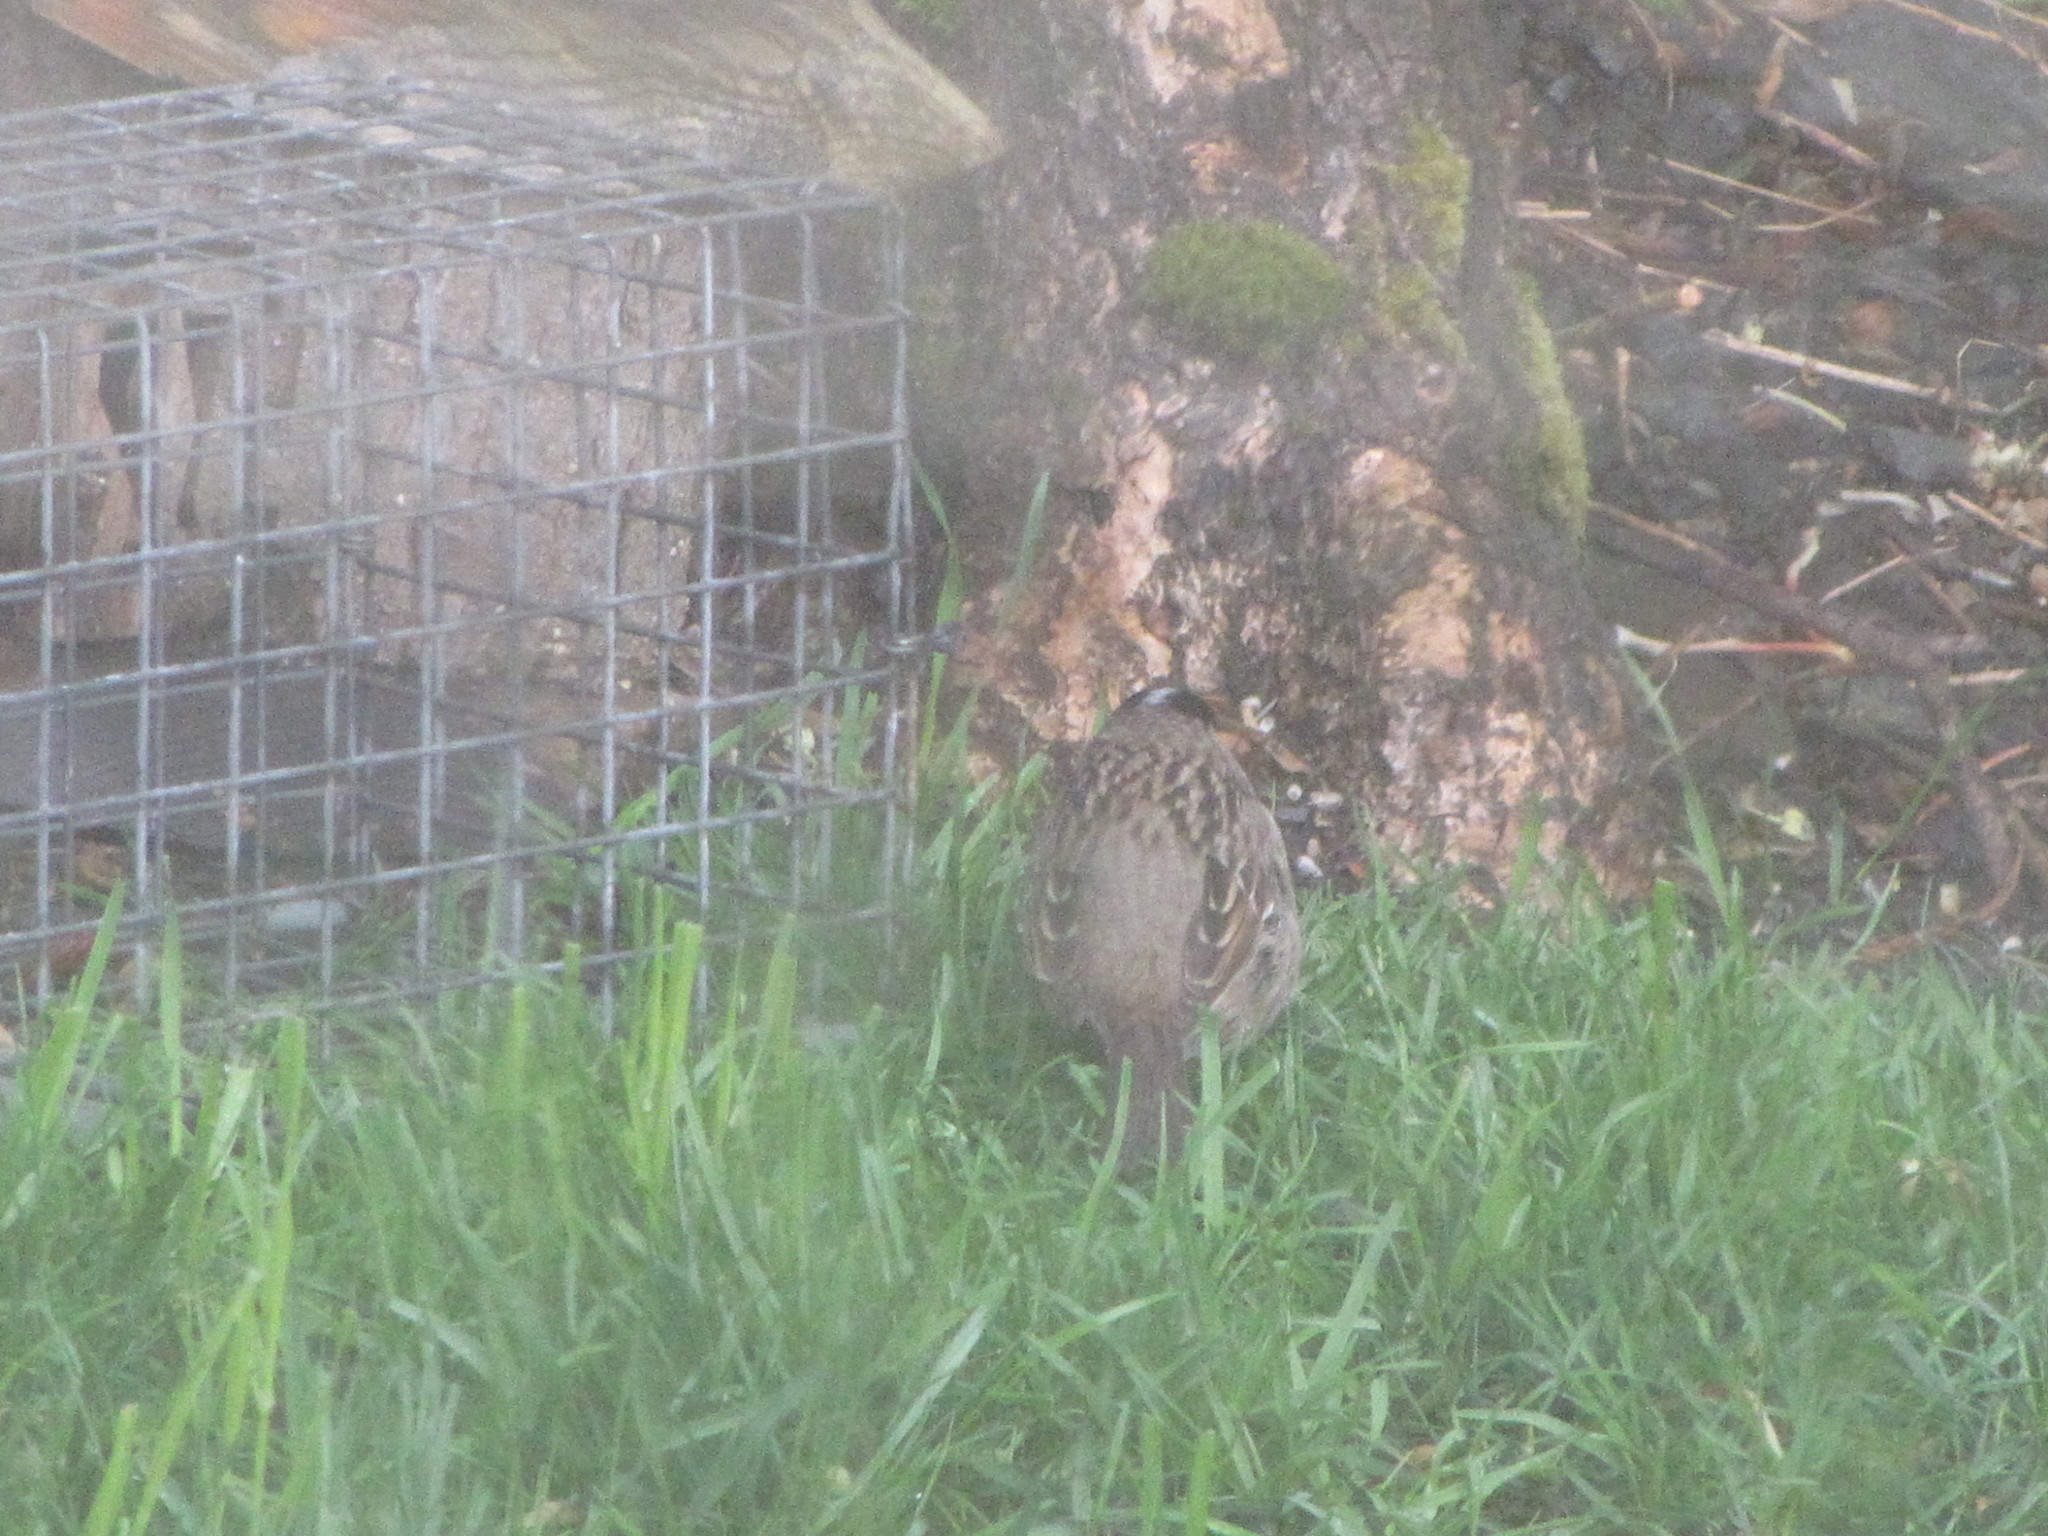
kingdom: Animalia
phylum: Chordata
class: Aves
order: Passeriformes
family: Passerellidae
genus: Zonotrichia
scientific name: Zonotrichia atricapilla
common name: Golden-crowned sparrow
